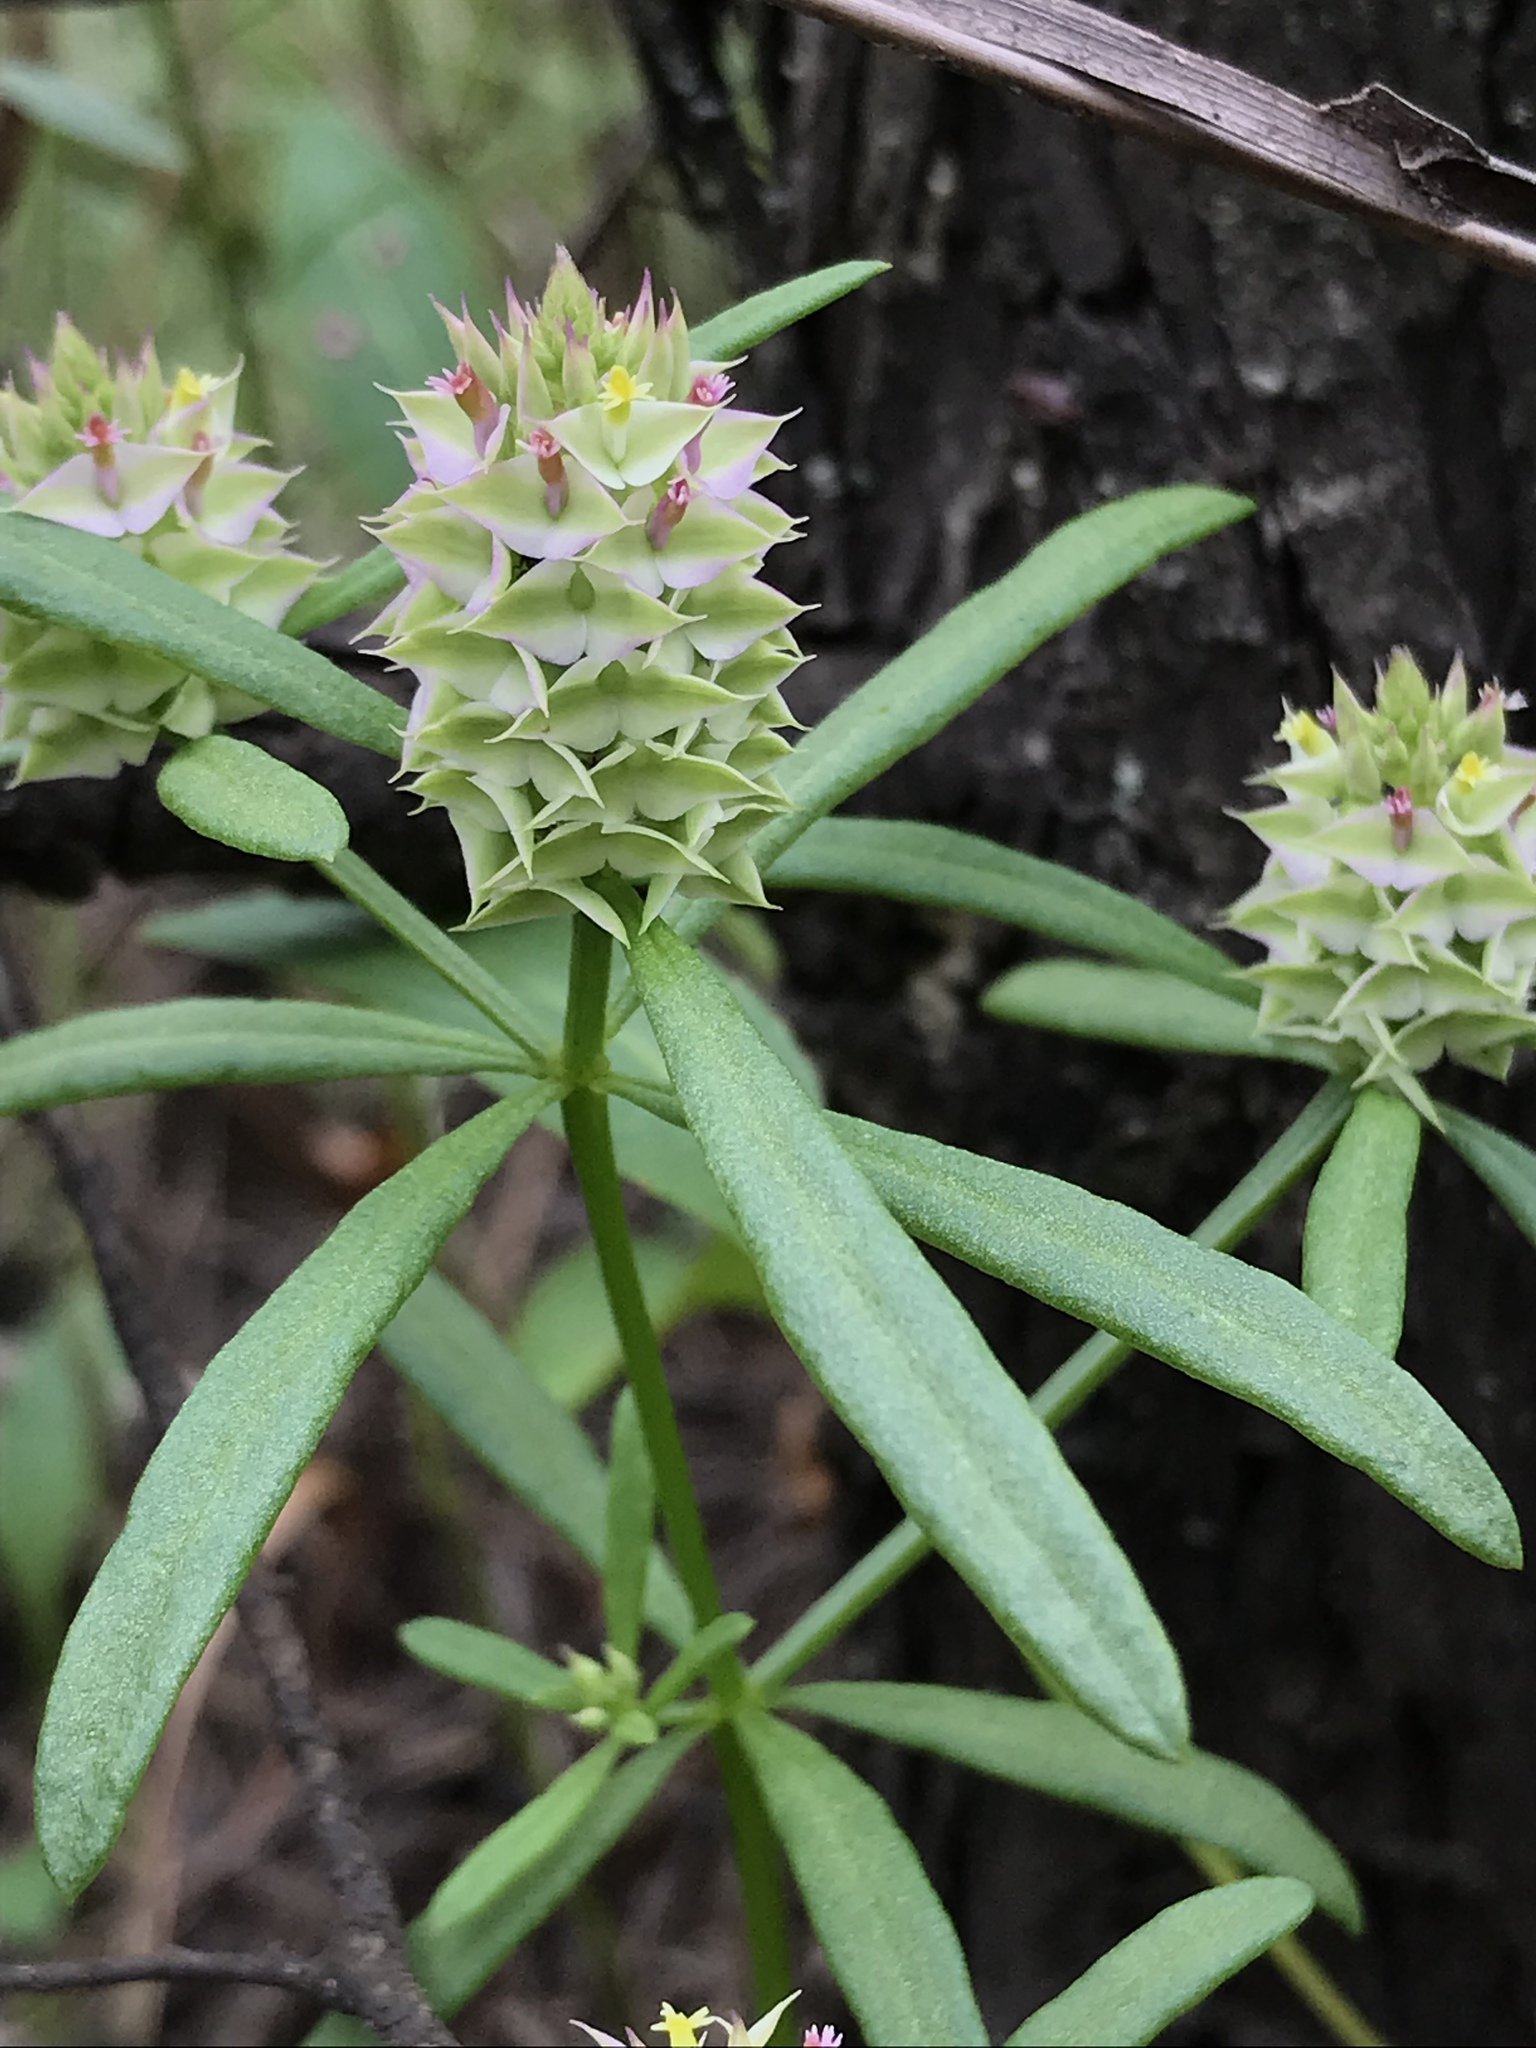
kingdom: Plantae
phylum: Tracheophyta
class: Magnoliopsida
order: Fabales
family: Polygalaceae
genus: Polygala
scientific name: Polygala cruciata
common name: Drumheads
